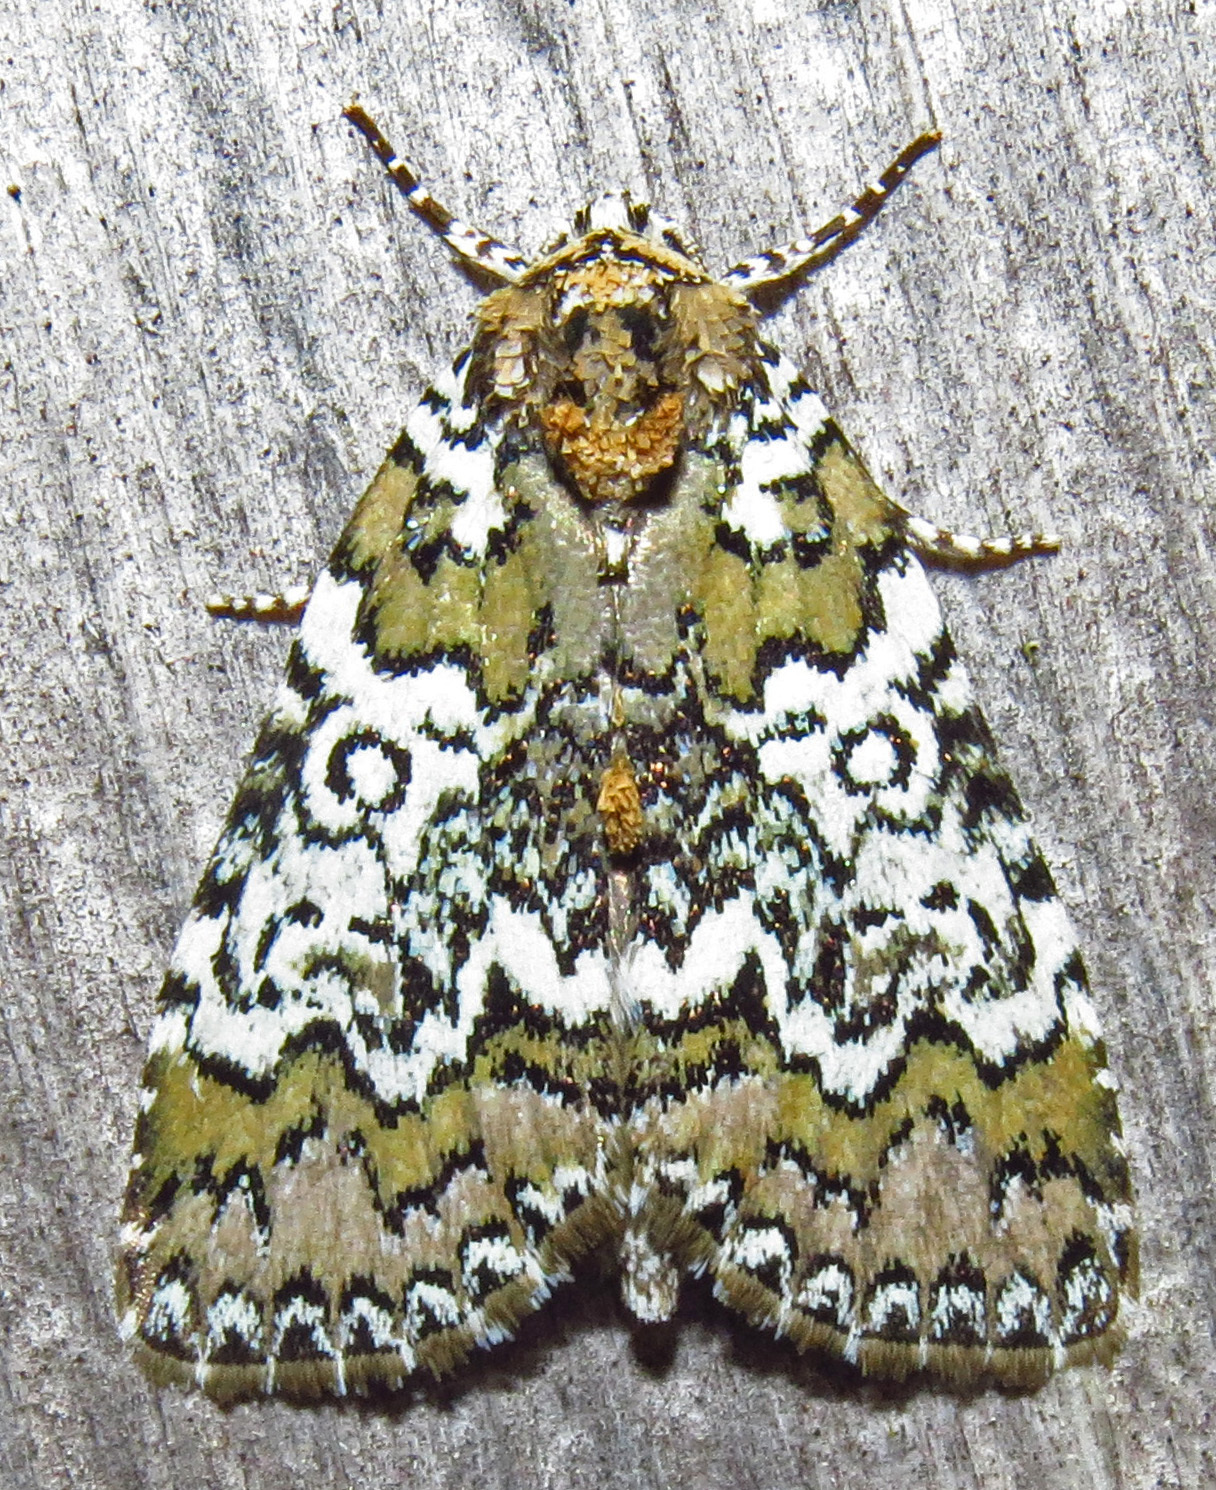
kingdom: Animalia
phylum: Arthropoda
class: Insecta
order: Lepidoptera
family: Noctuidae
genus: Cerma
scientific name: Cerma cora
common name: Bird dropping moth
